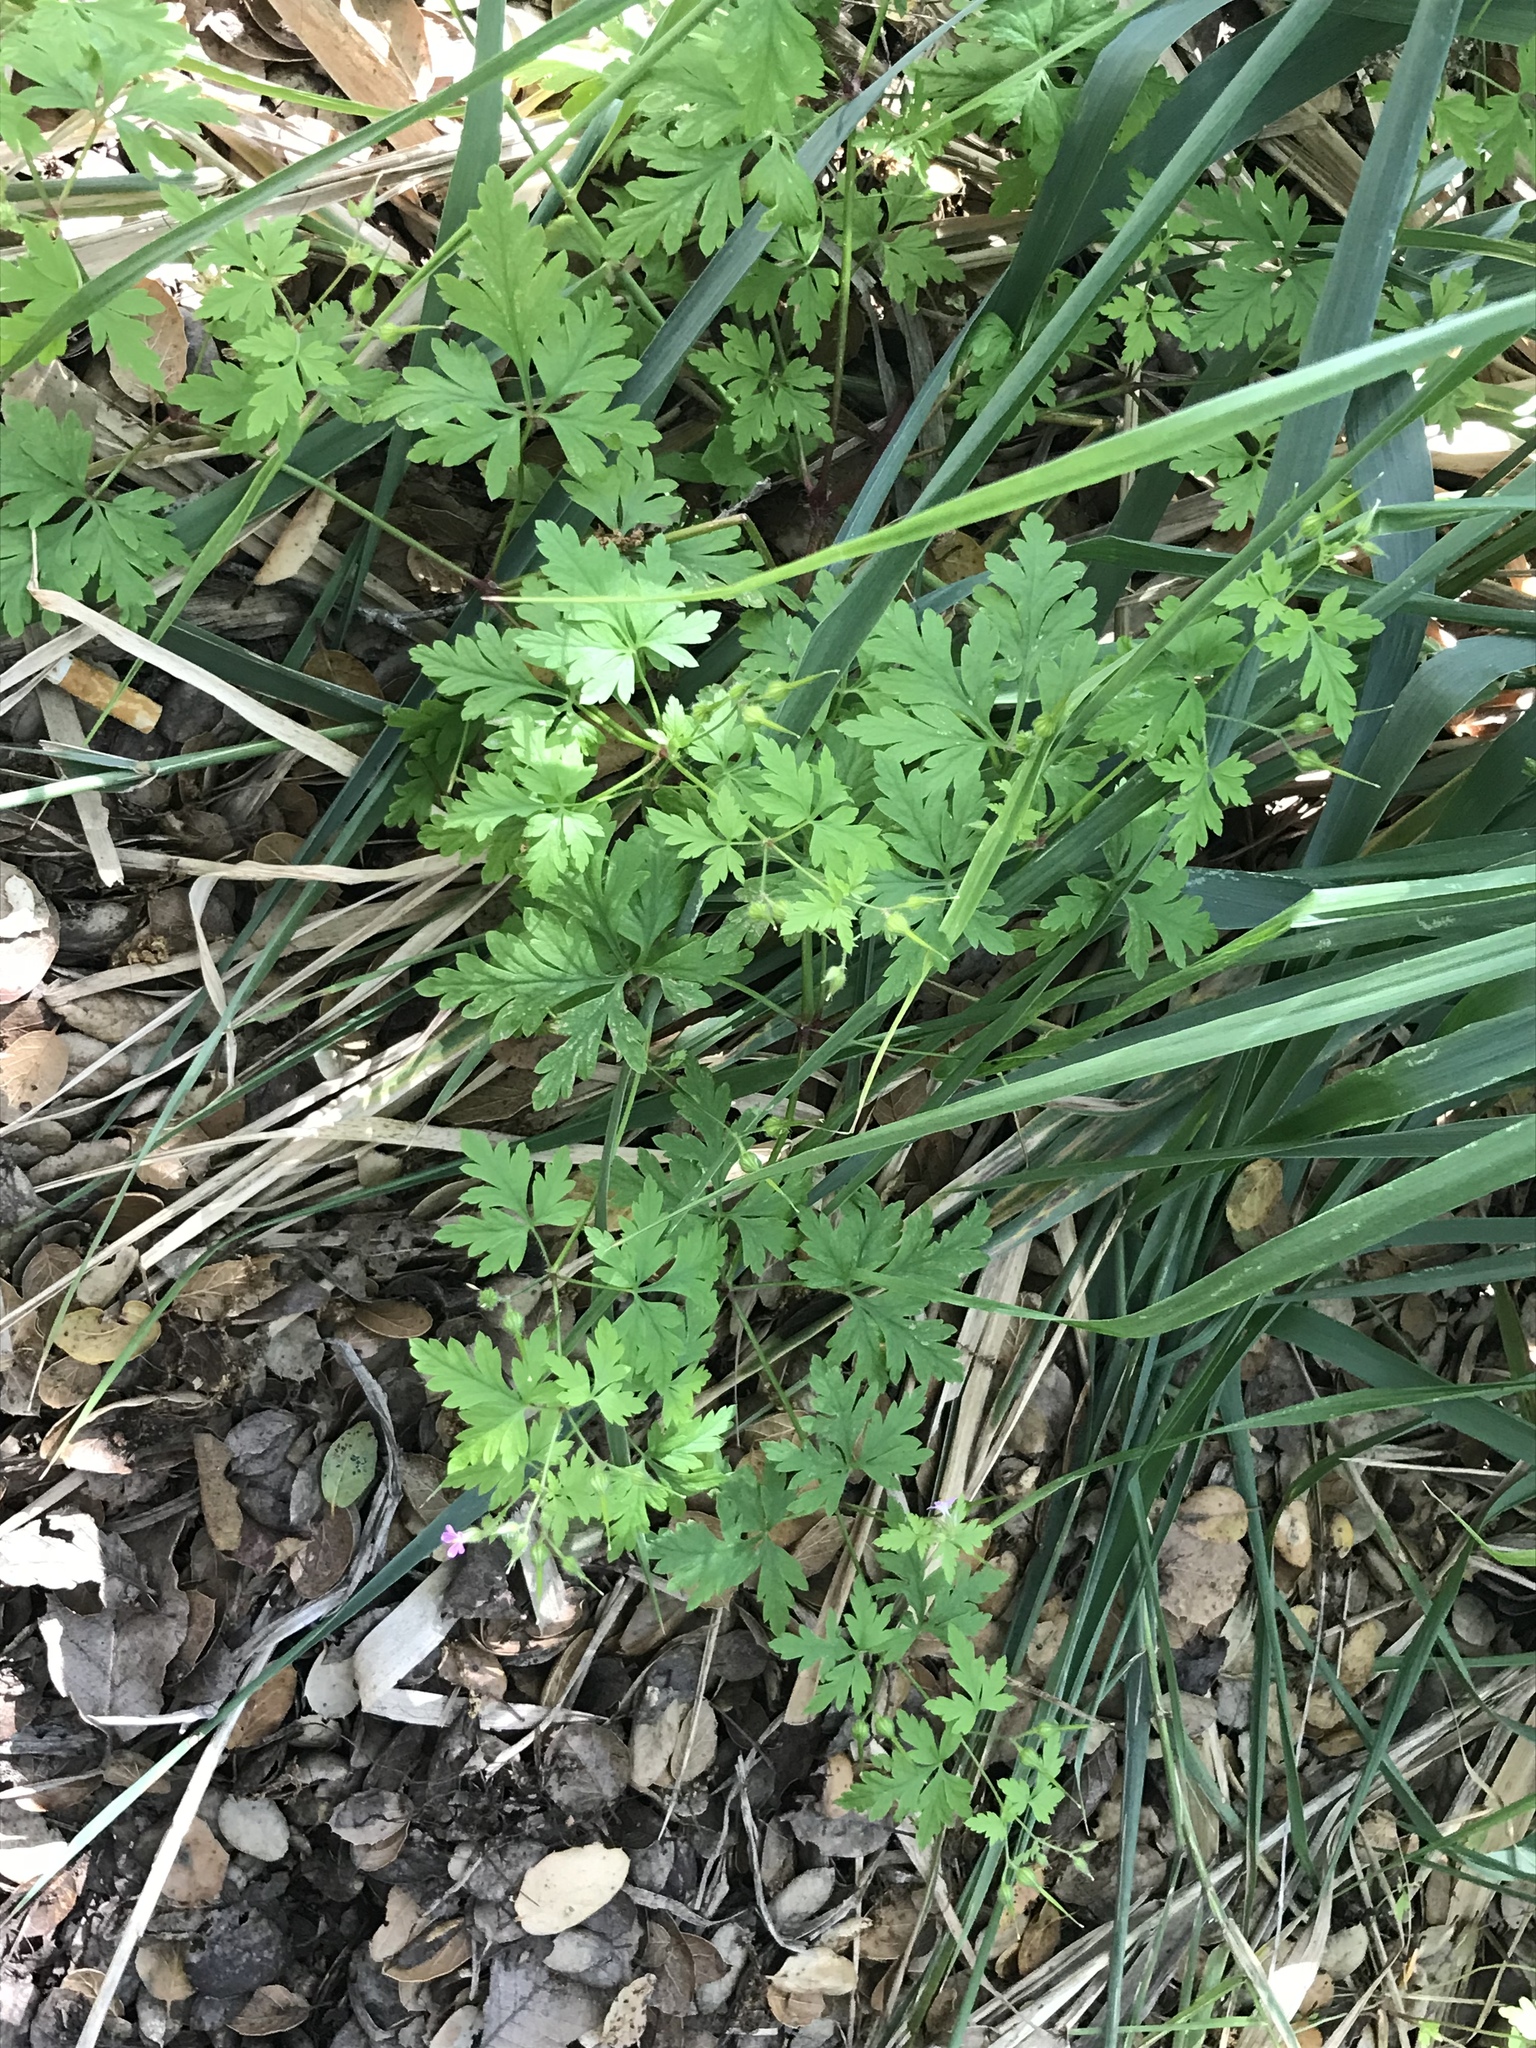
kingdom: Plantae
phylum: Tracheophyta
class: Magnoliopsida
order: Geraniales
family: Geraniaceae
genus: Geranium
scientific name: Geranium robertianum
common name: Herb-robert
